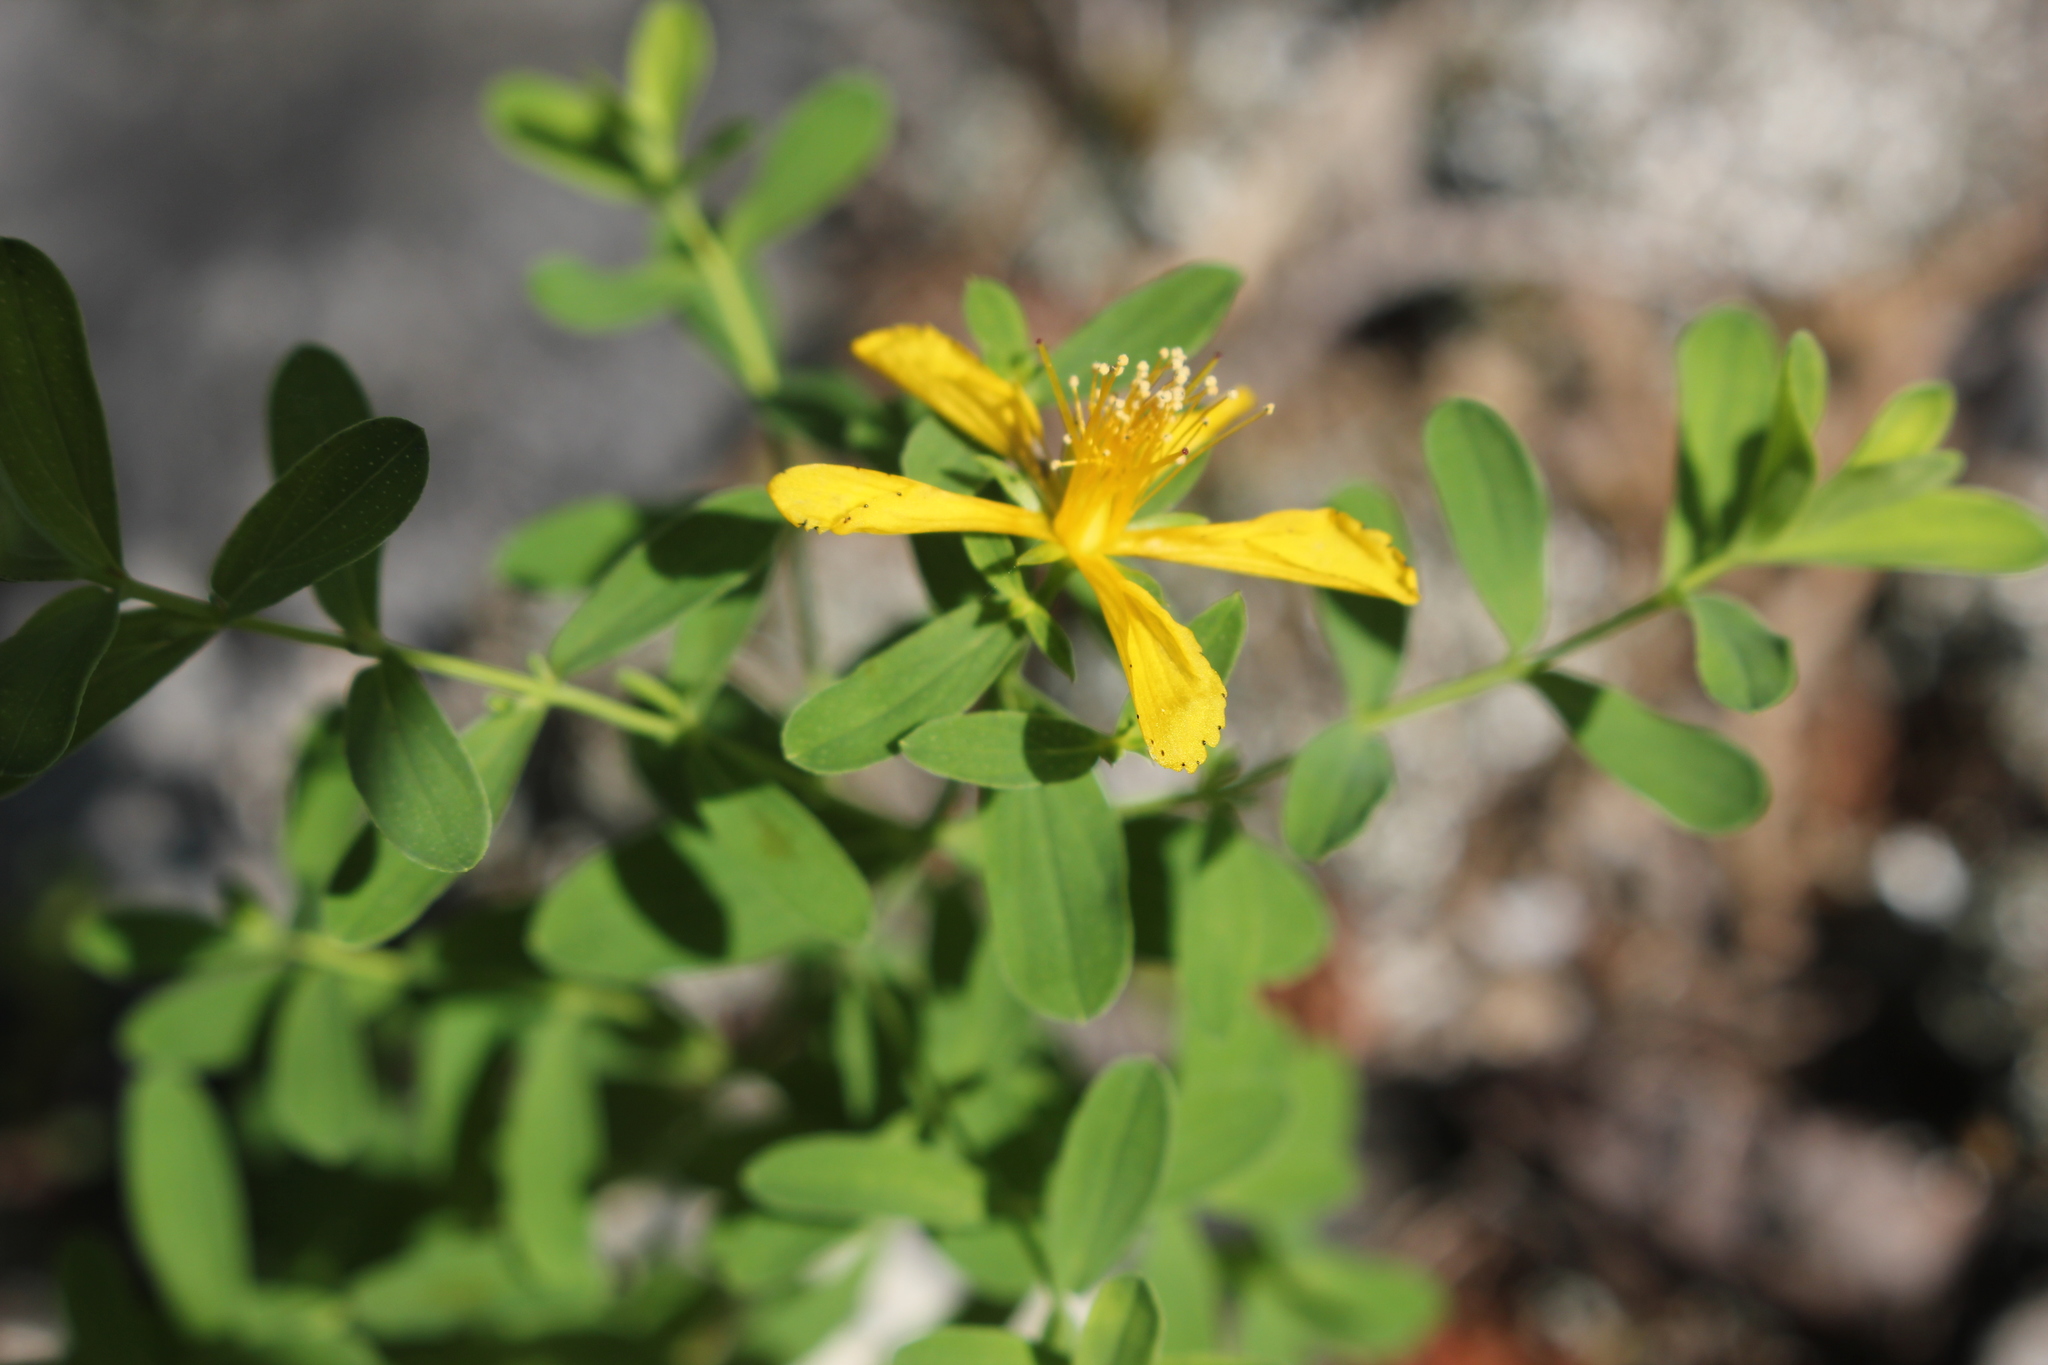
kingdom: Plantae
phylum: Tracheophyta
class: Magnoliopsida
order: Malpighiales
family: Hypericaceae
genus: Hypericum
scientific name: Hypericum perforatum
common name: Common st. johnswort
